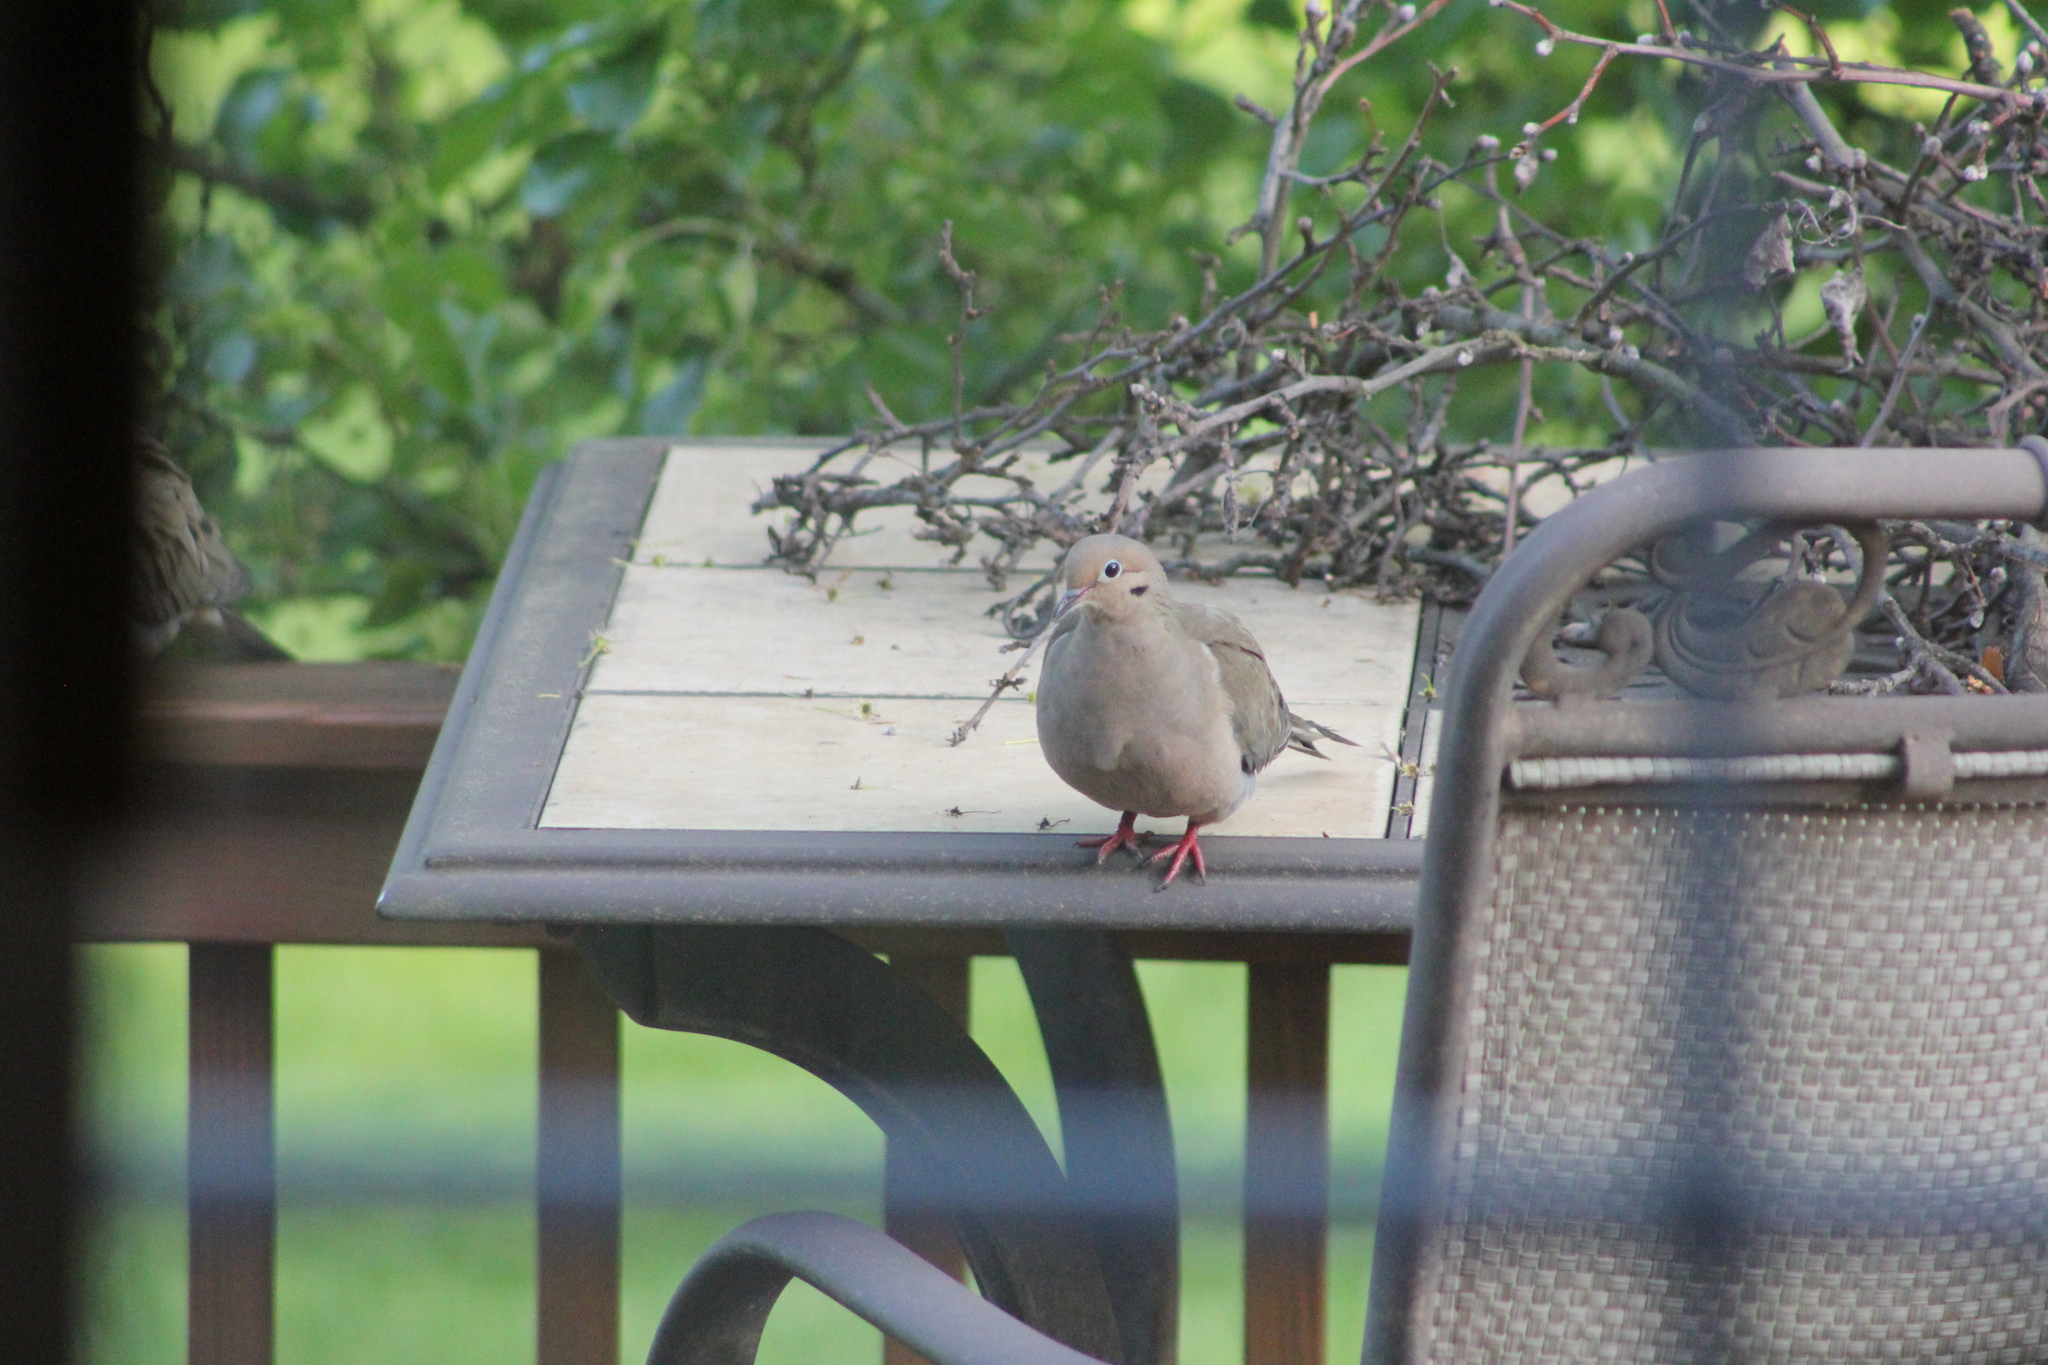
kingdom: Animalia
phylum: Chordata
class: Aves
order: Columbiformes
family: Columbidae
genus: Zenaida
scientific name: Zenaida macroura
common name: Mourning dove
